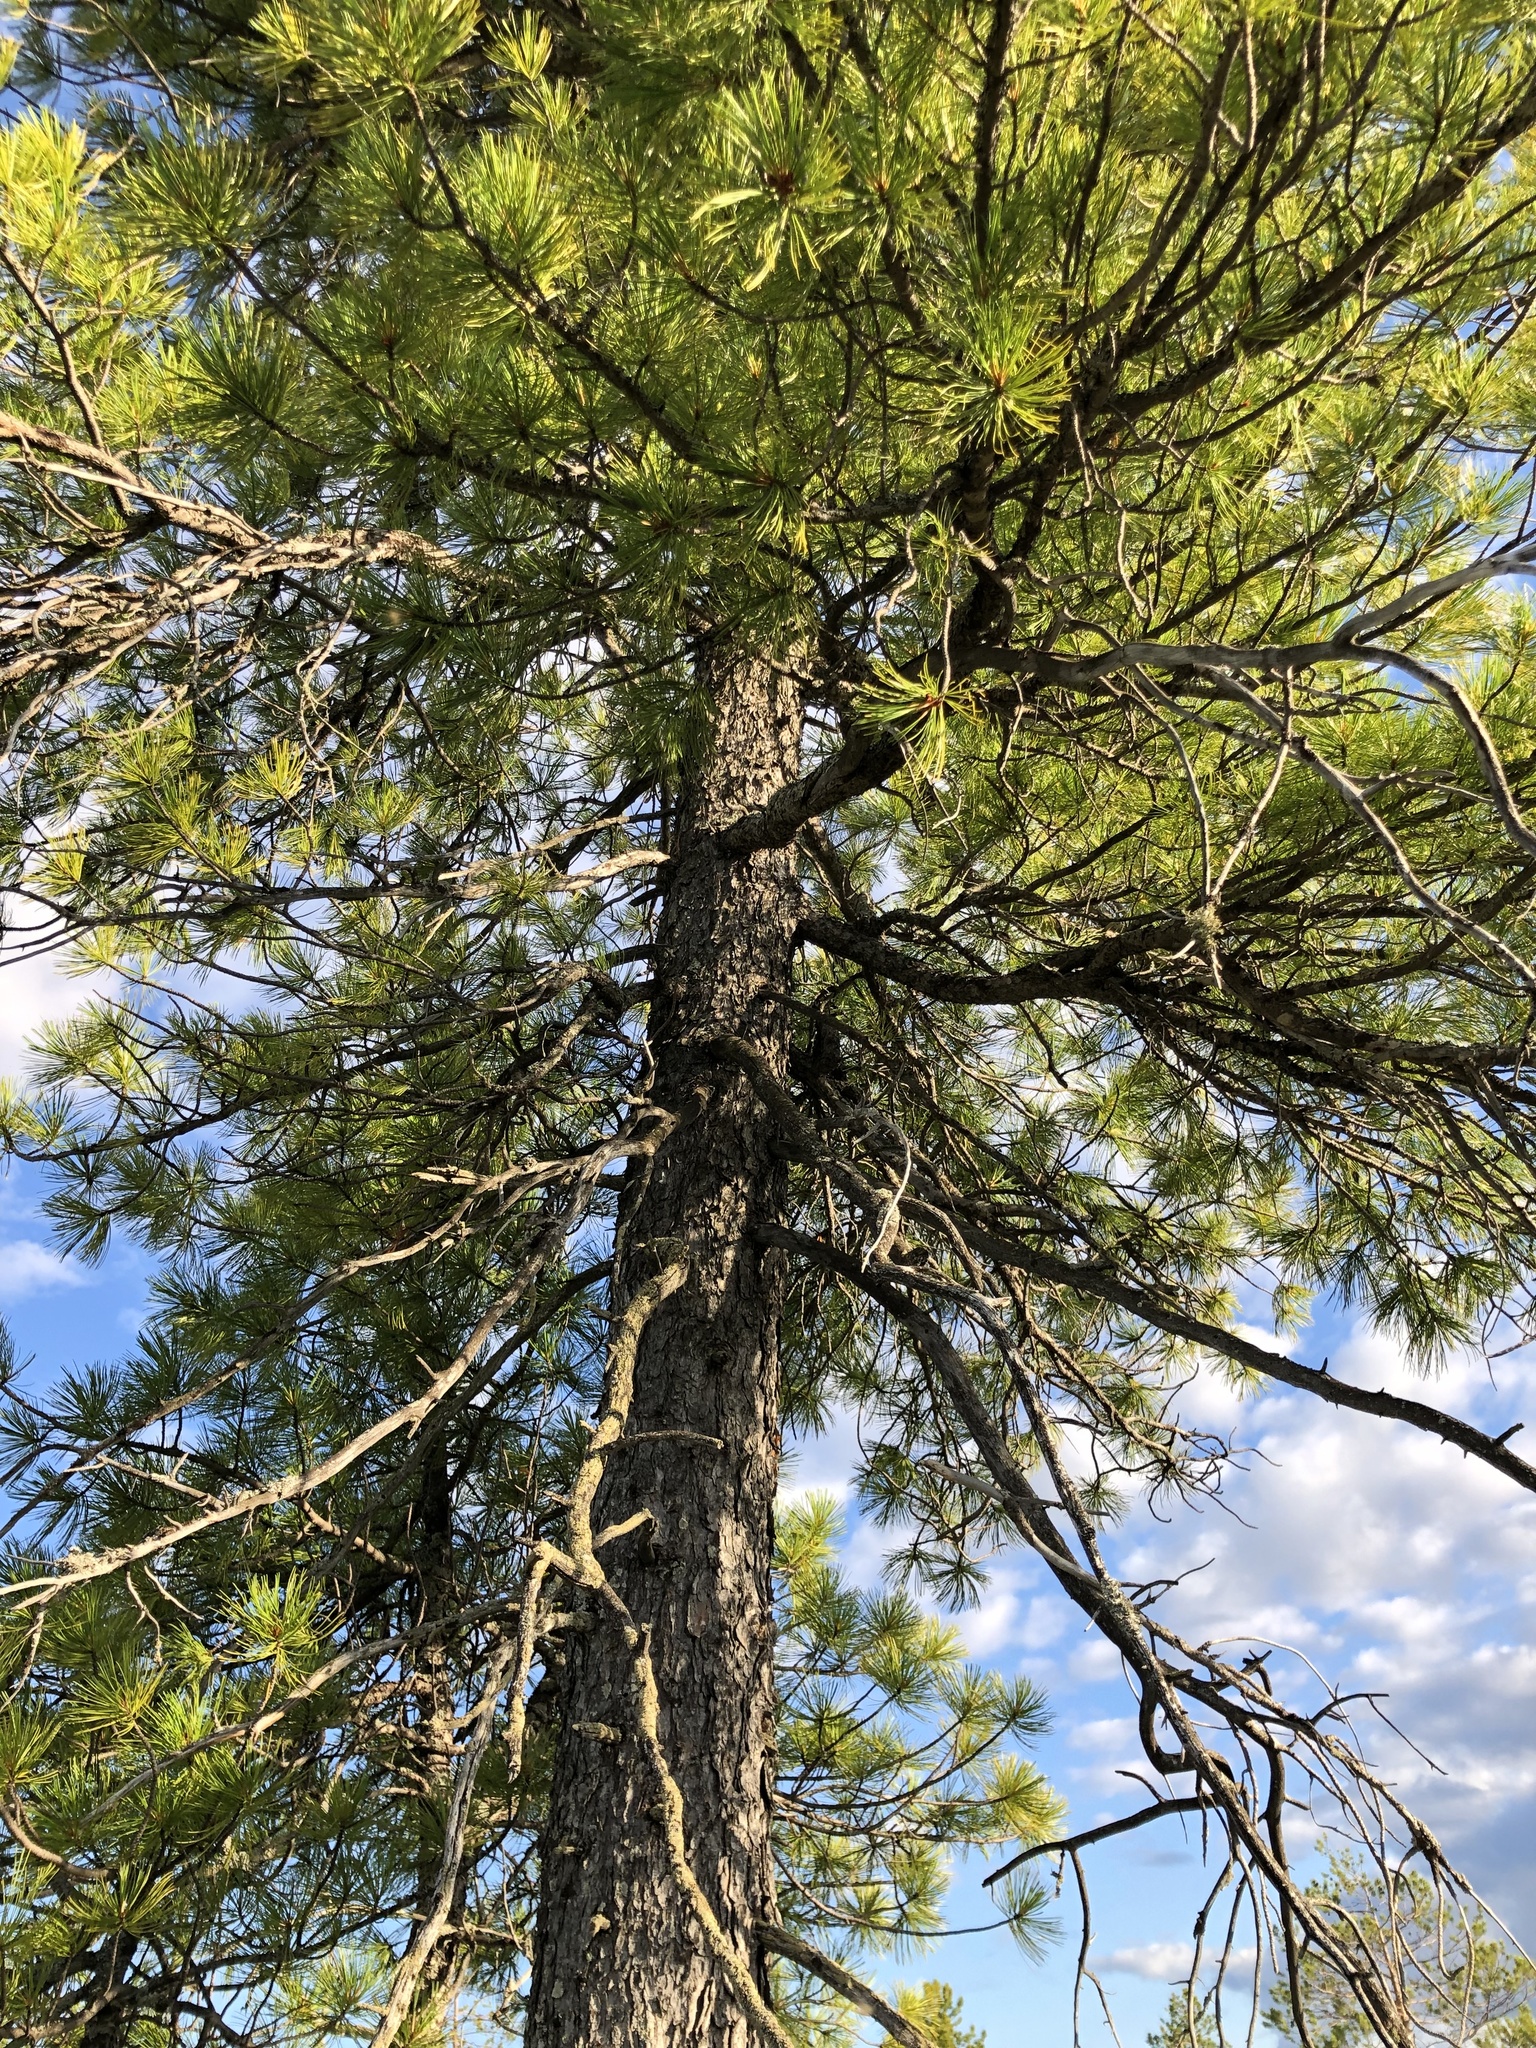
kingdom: Plantae
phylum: Tracheophyta
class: Pinopsida
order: Pinales
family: Pinaceae
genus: Pinus
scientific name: Pinus sibirica
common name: Siberian pine
